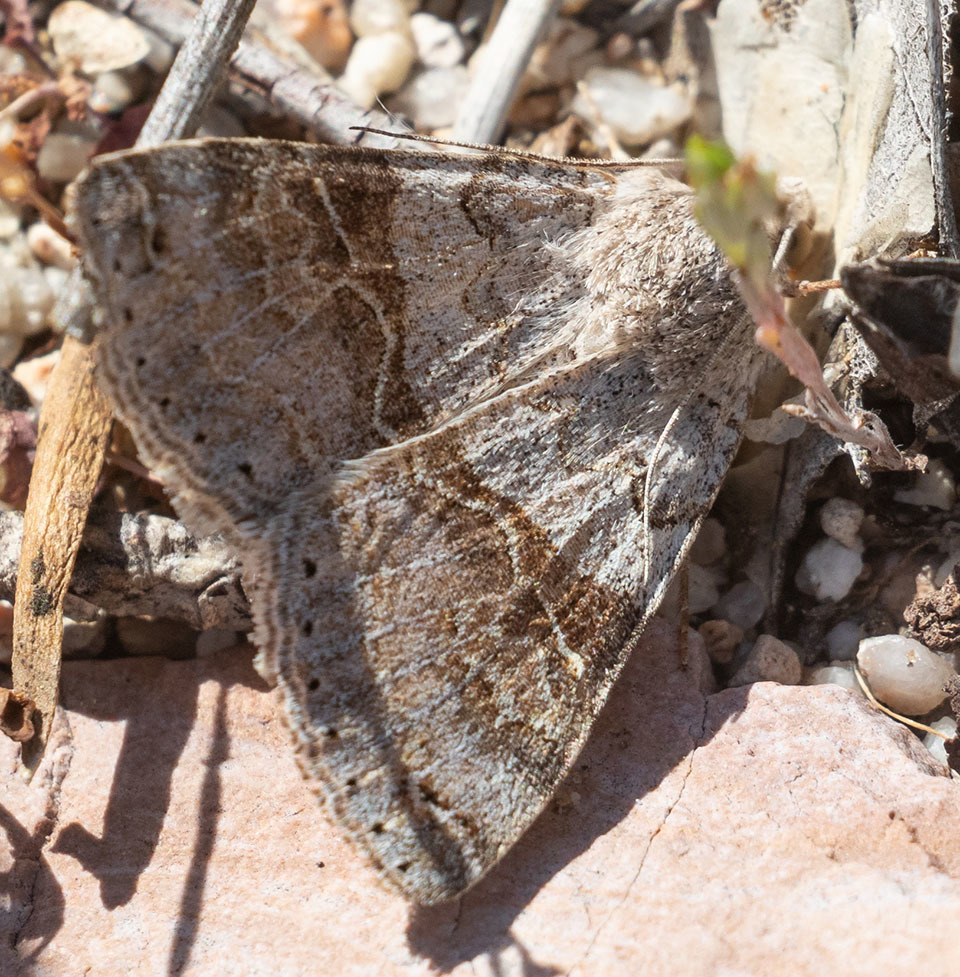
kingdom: Animalia
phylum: Arthropoda
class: Insecta
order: Lepidoptera
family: Erebidae
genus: Drasteria
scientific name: Drasteria scrupulosa
